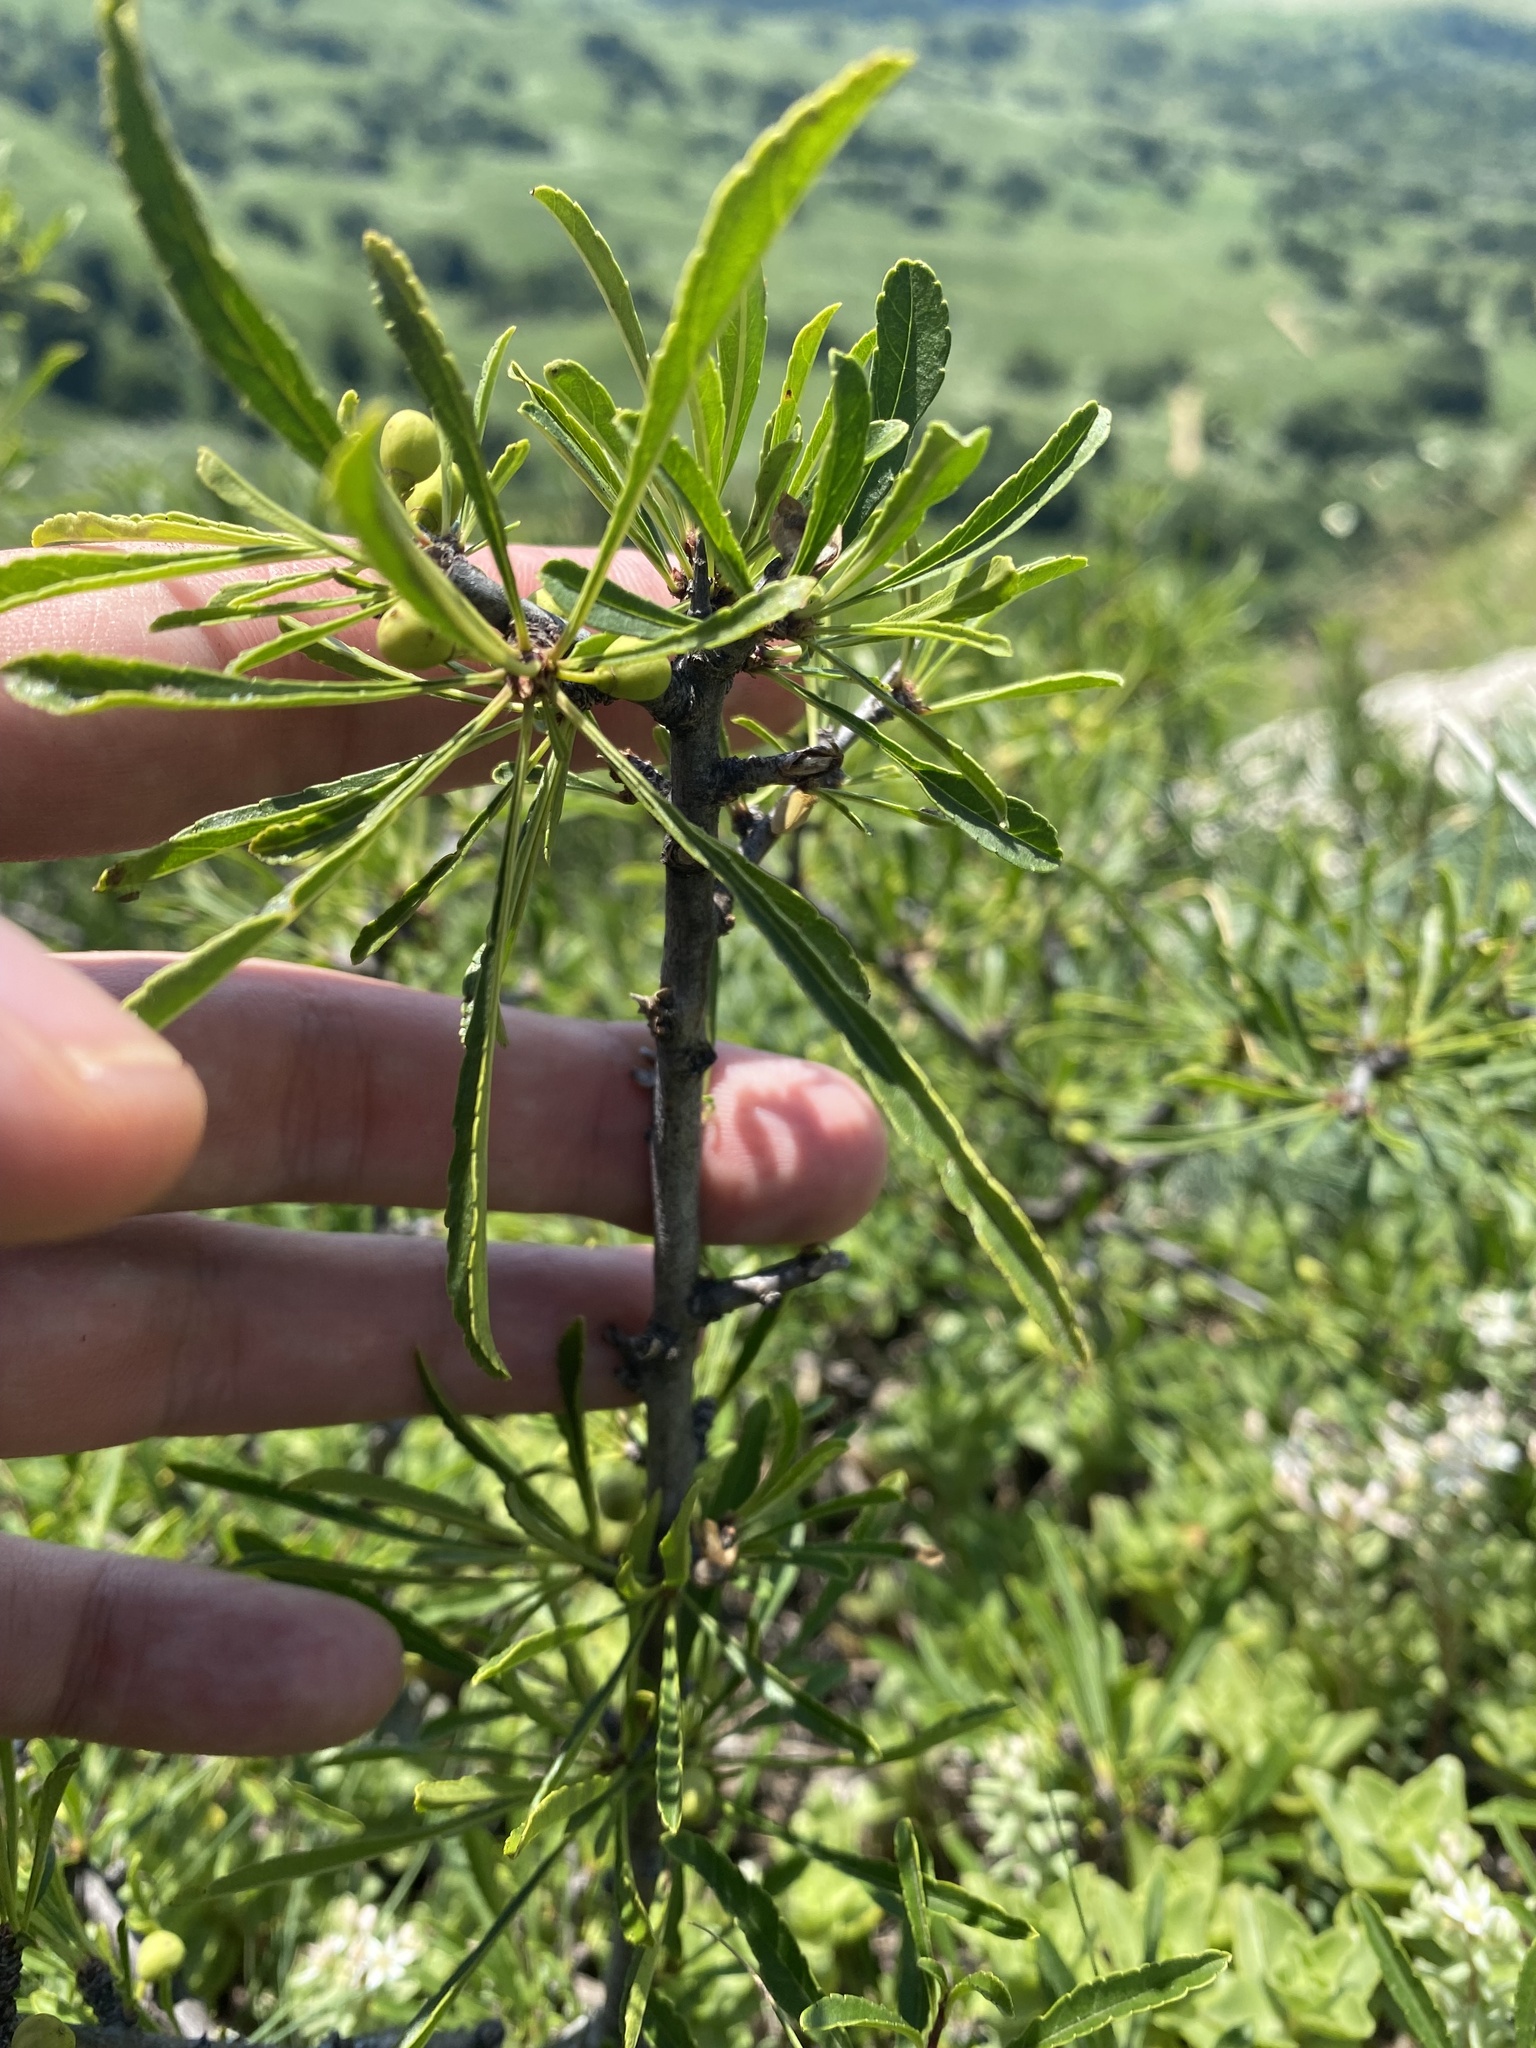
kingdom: Plantae
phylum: Tracheophyta
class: Magnoliopsida
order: Rosales
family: Rhamnaceae
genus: Rhamnus
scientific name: Rhamnus erythroxyloides
